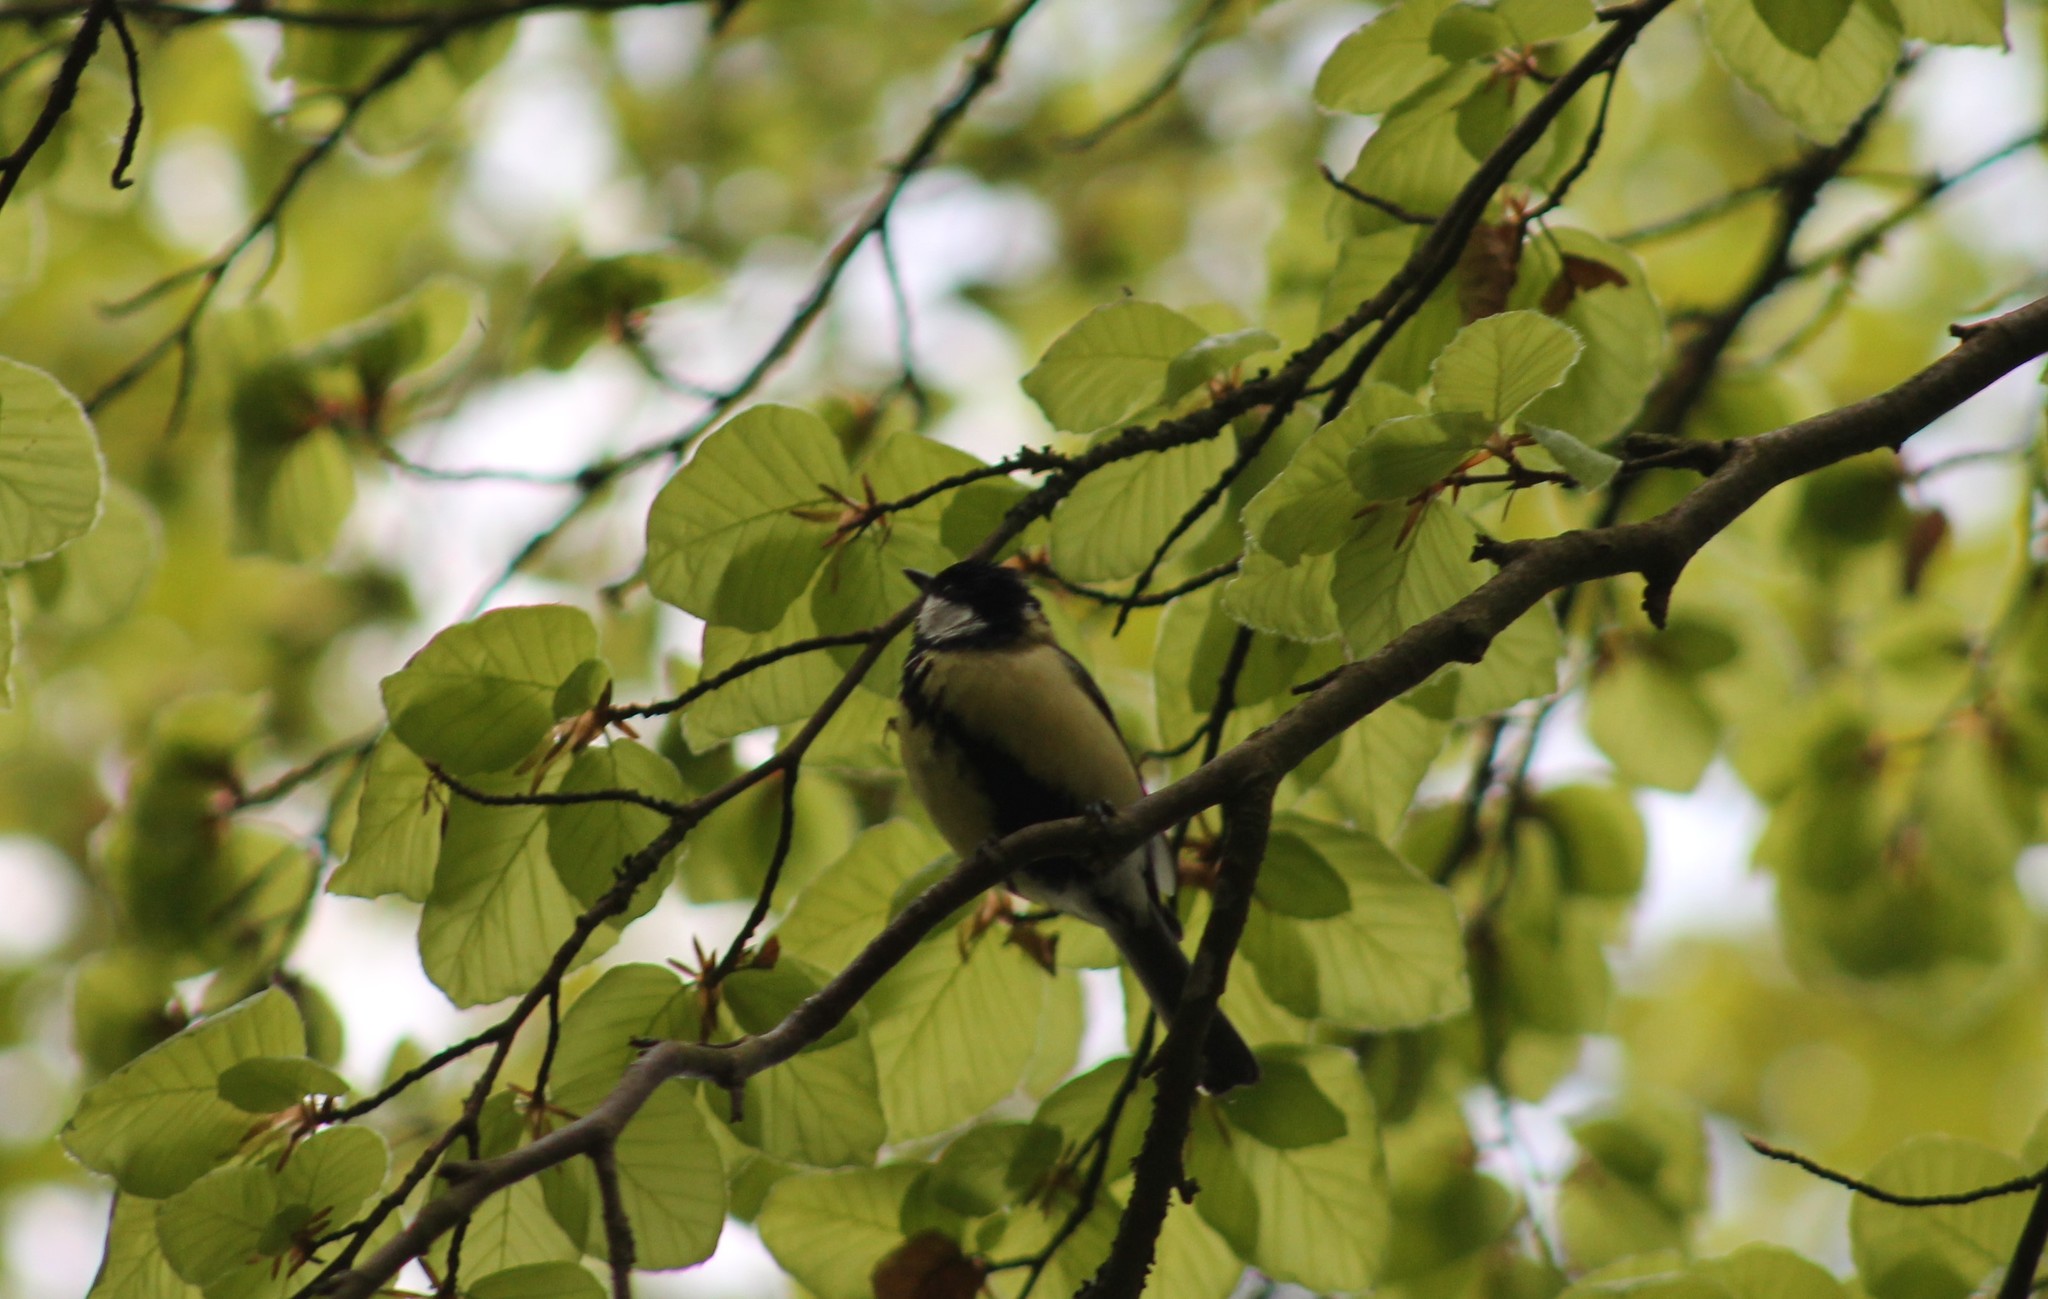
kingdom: Animalia
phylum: Chordata
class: Aves
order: Passeriformes
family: Paridae
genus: Parus
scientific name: Parus major
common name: Great tit
